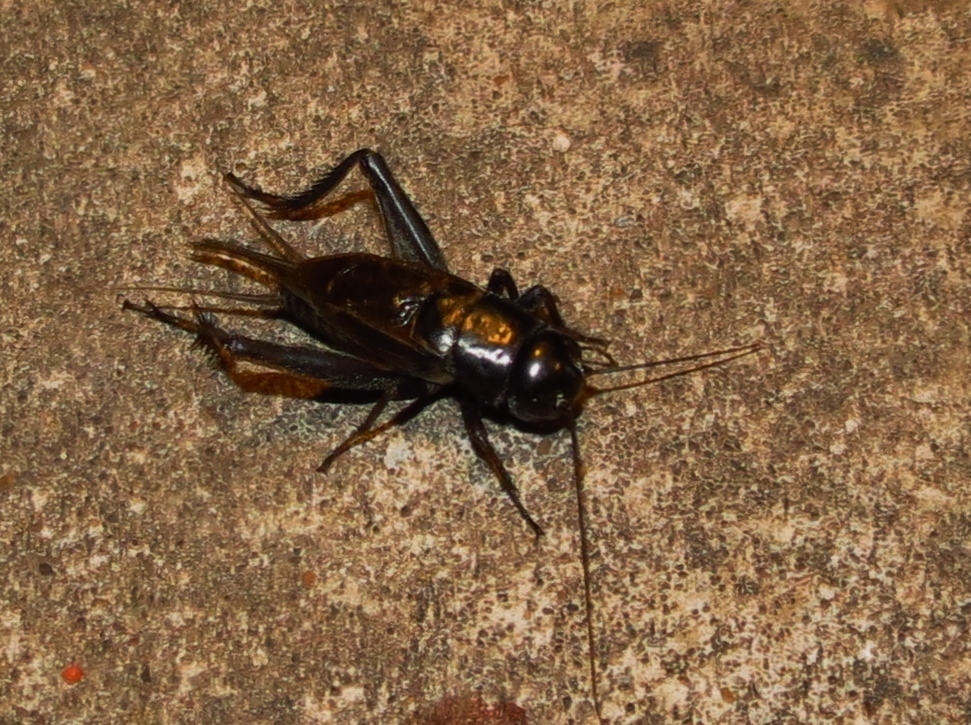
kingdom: Animalia
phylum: Arthropoda
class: Insecta
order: Orthoptera
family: Gryllidae
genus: Gryllus
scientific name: Gryllus
